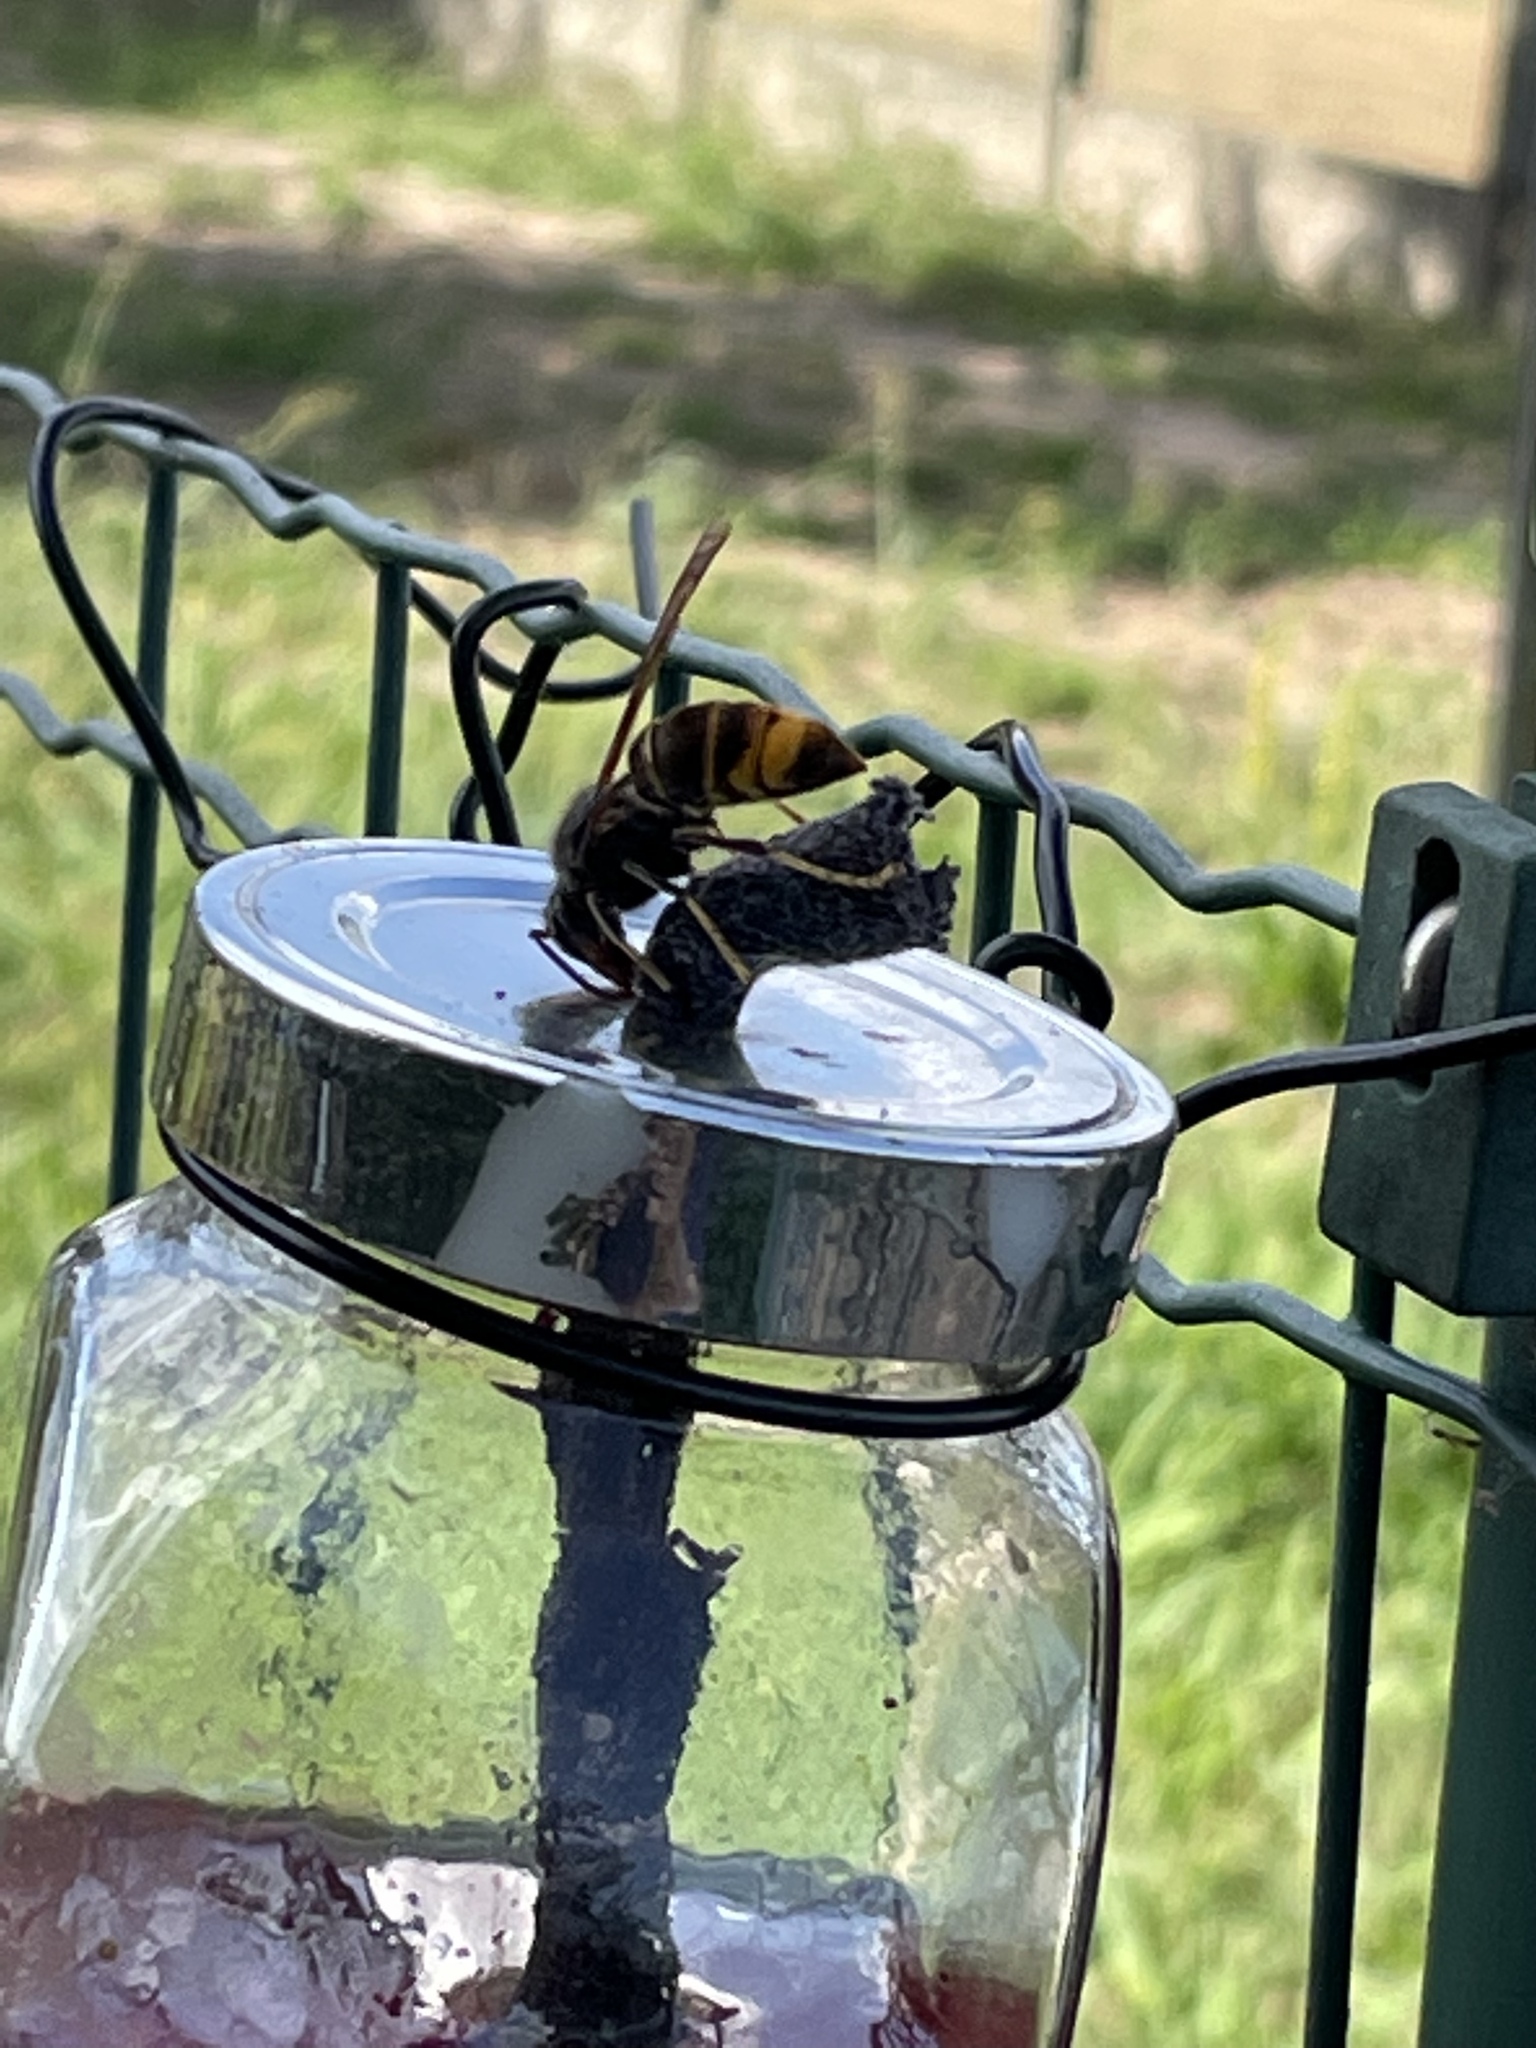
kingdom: Animalia
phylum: Arthropoda
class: Insecta
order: Hymenoptera
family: Vespidae
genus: Vespa
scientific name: Vespa velutina
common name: Asian hornet
